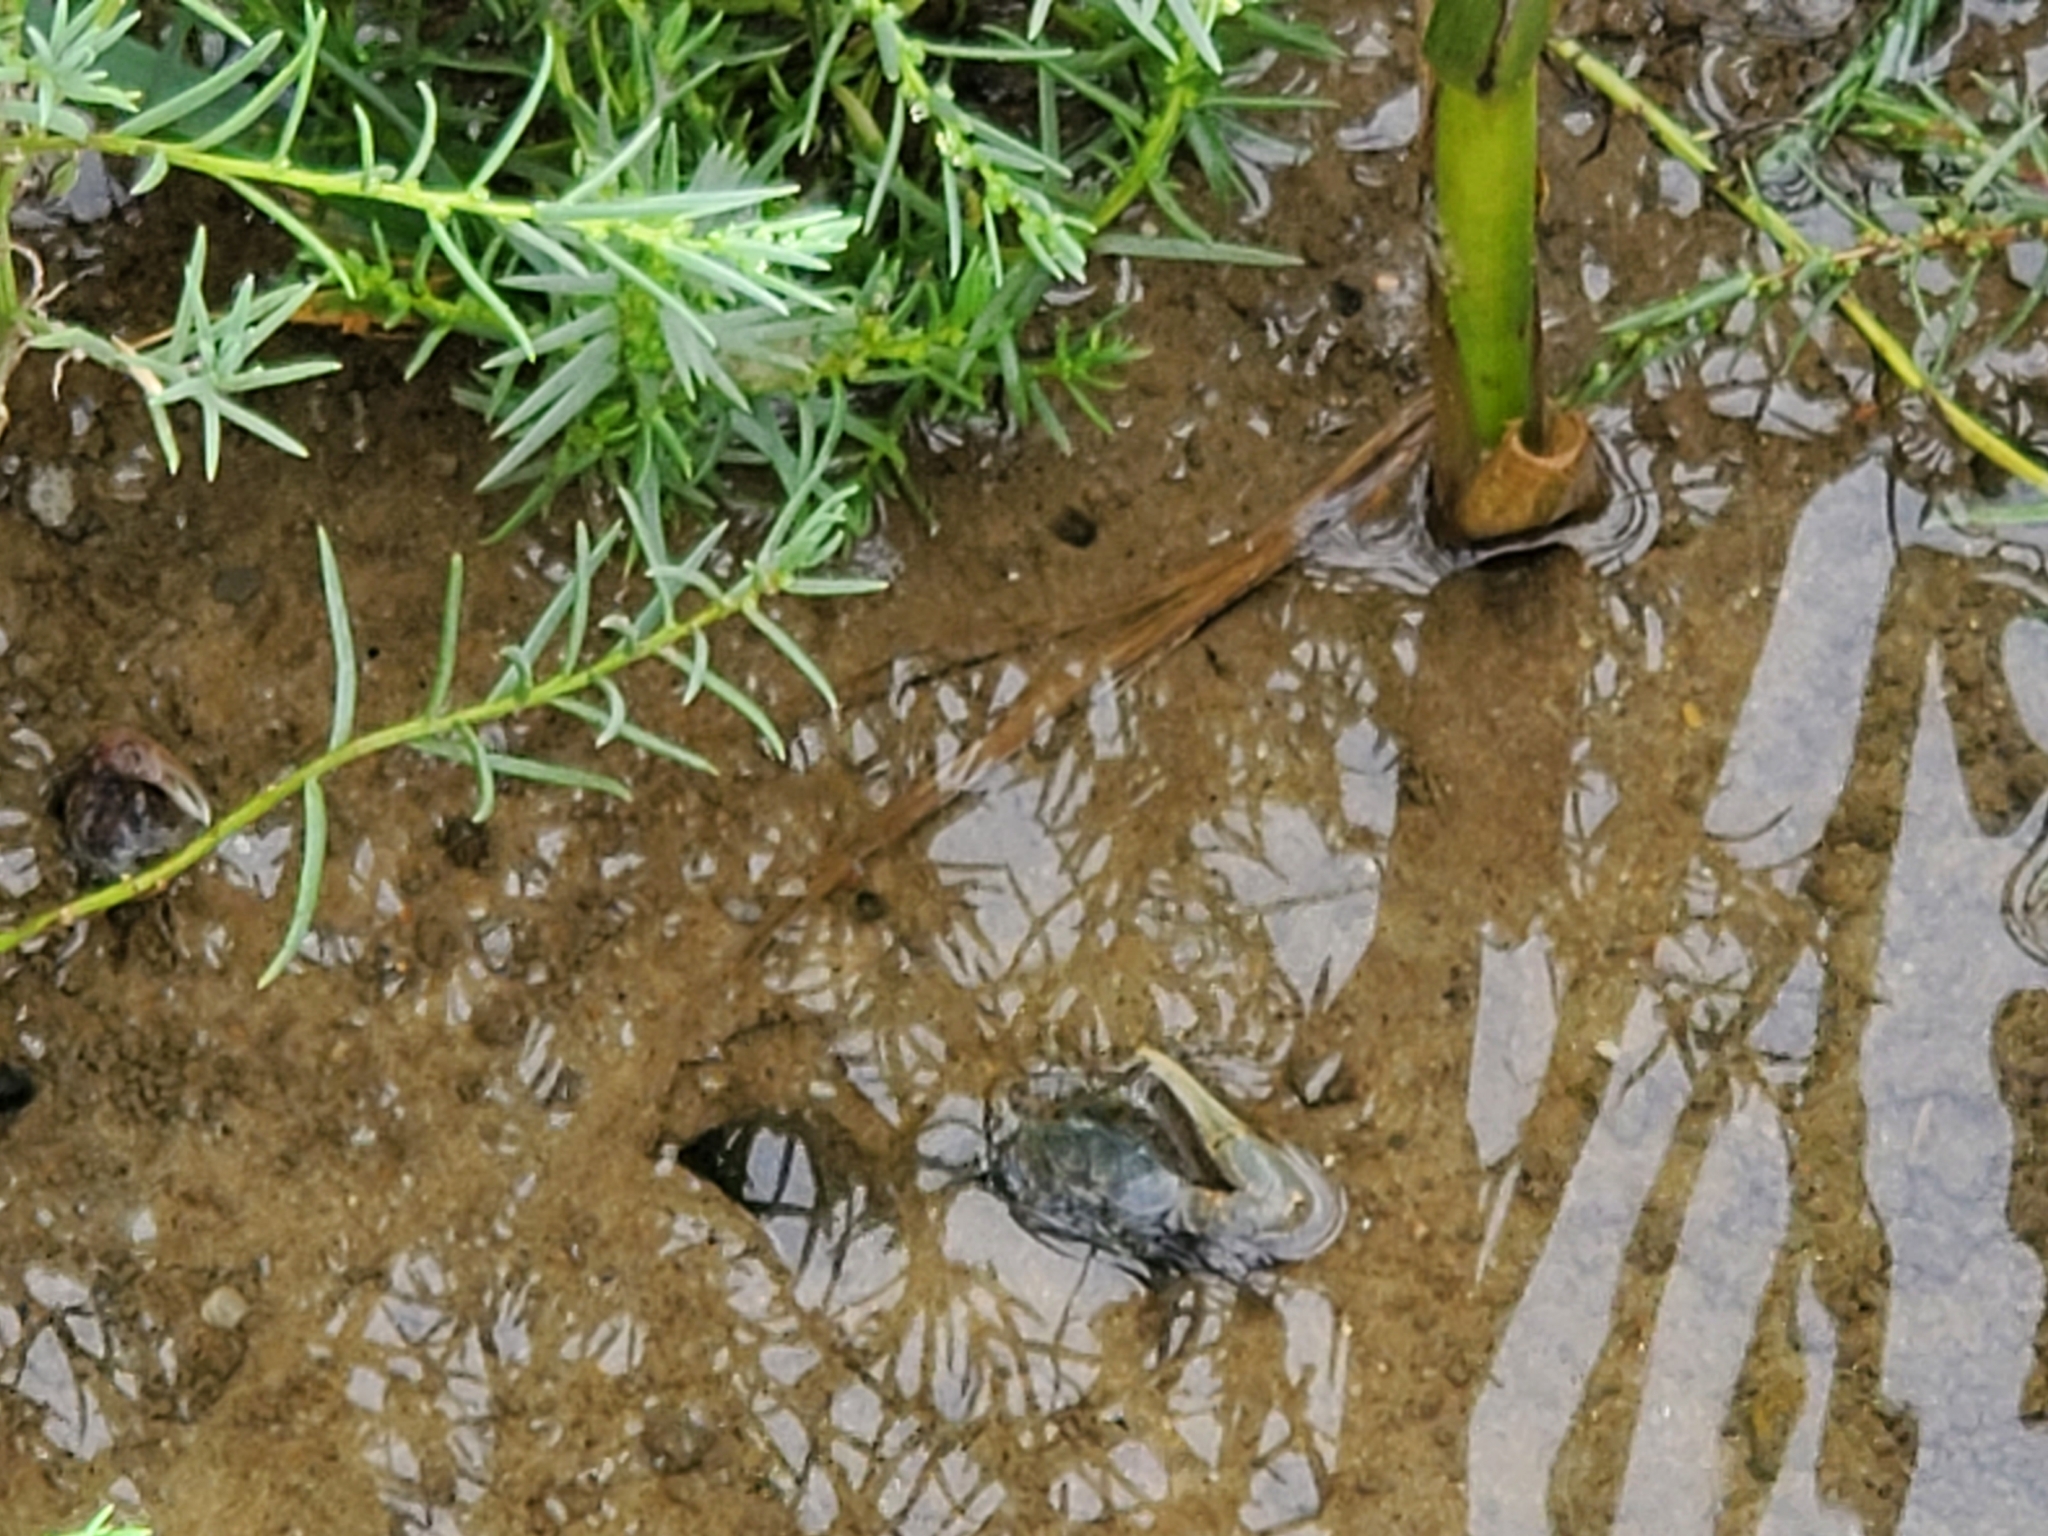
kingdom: Animalia
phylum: Arthropoda
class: Malacostraca
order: Decapoda
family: Ocypodidae
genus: Minuca
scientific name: Minuca pugnax
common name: Mud fiddler crab
